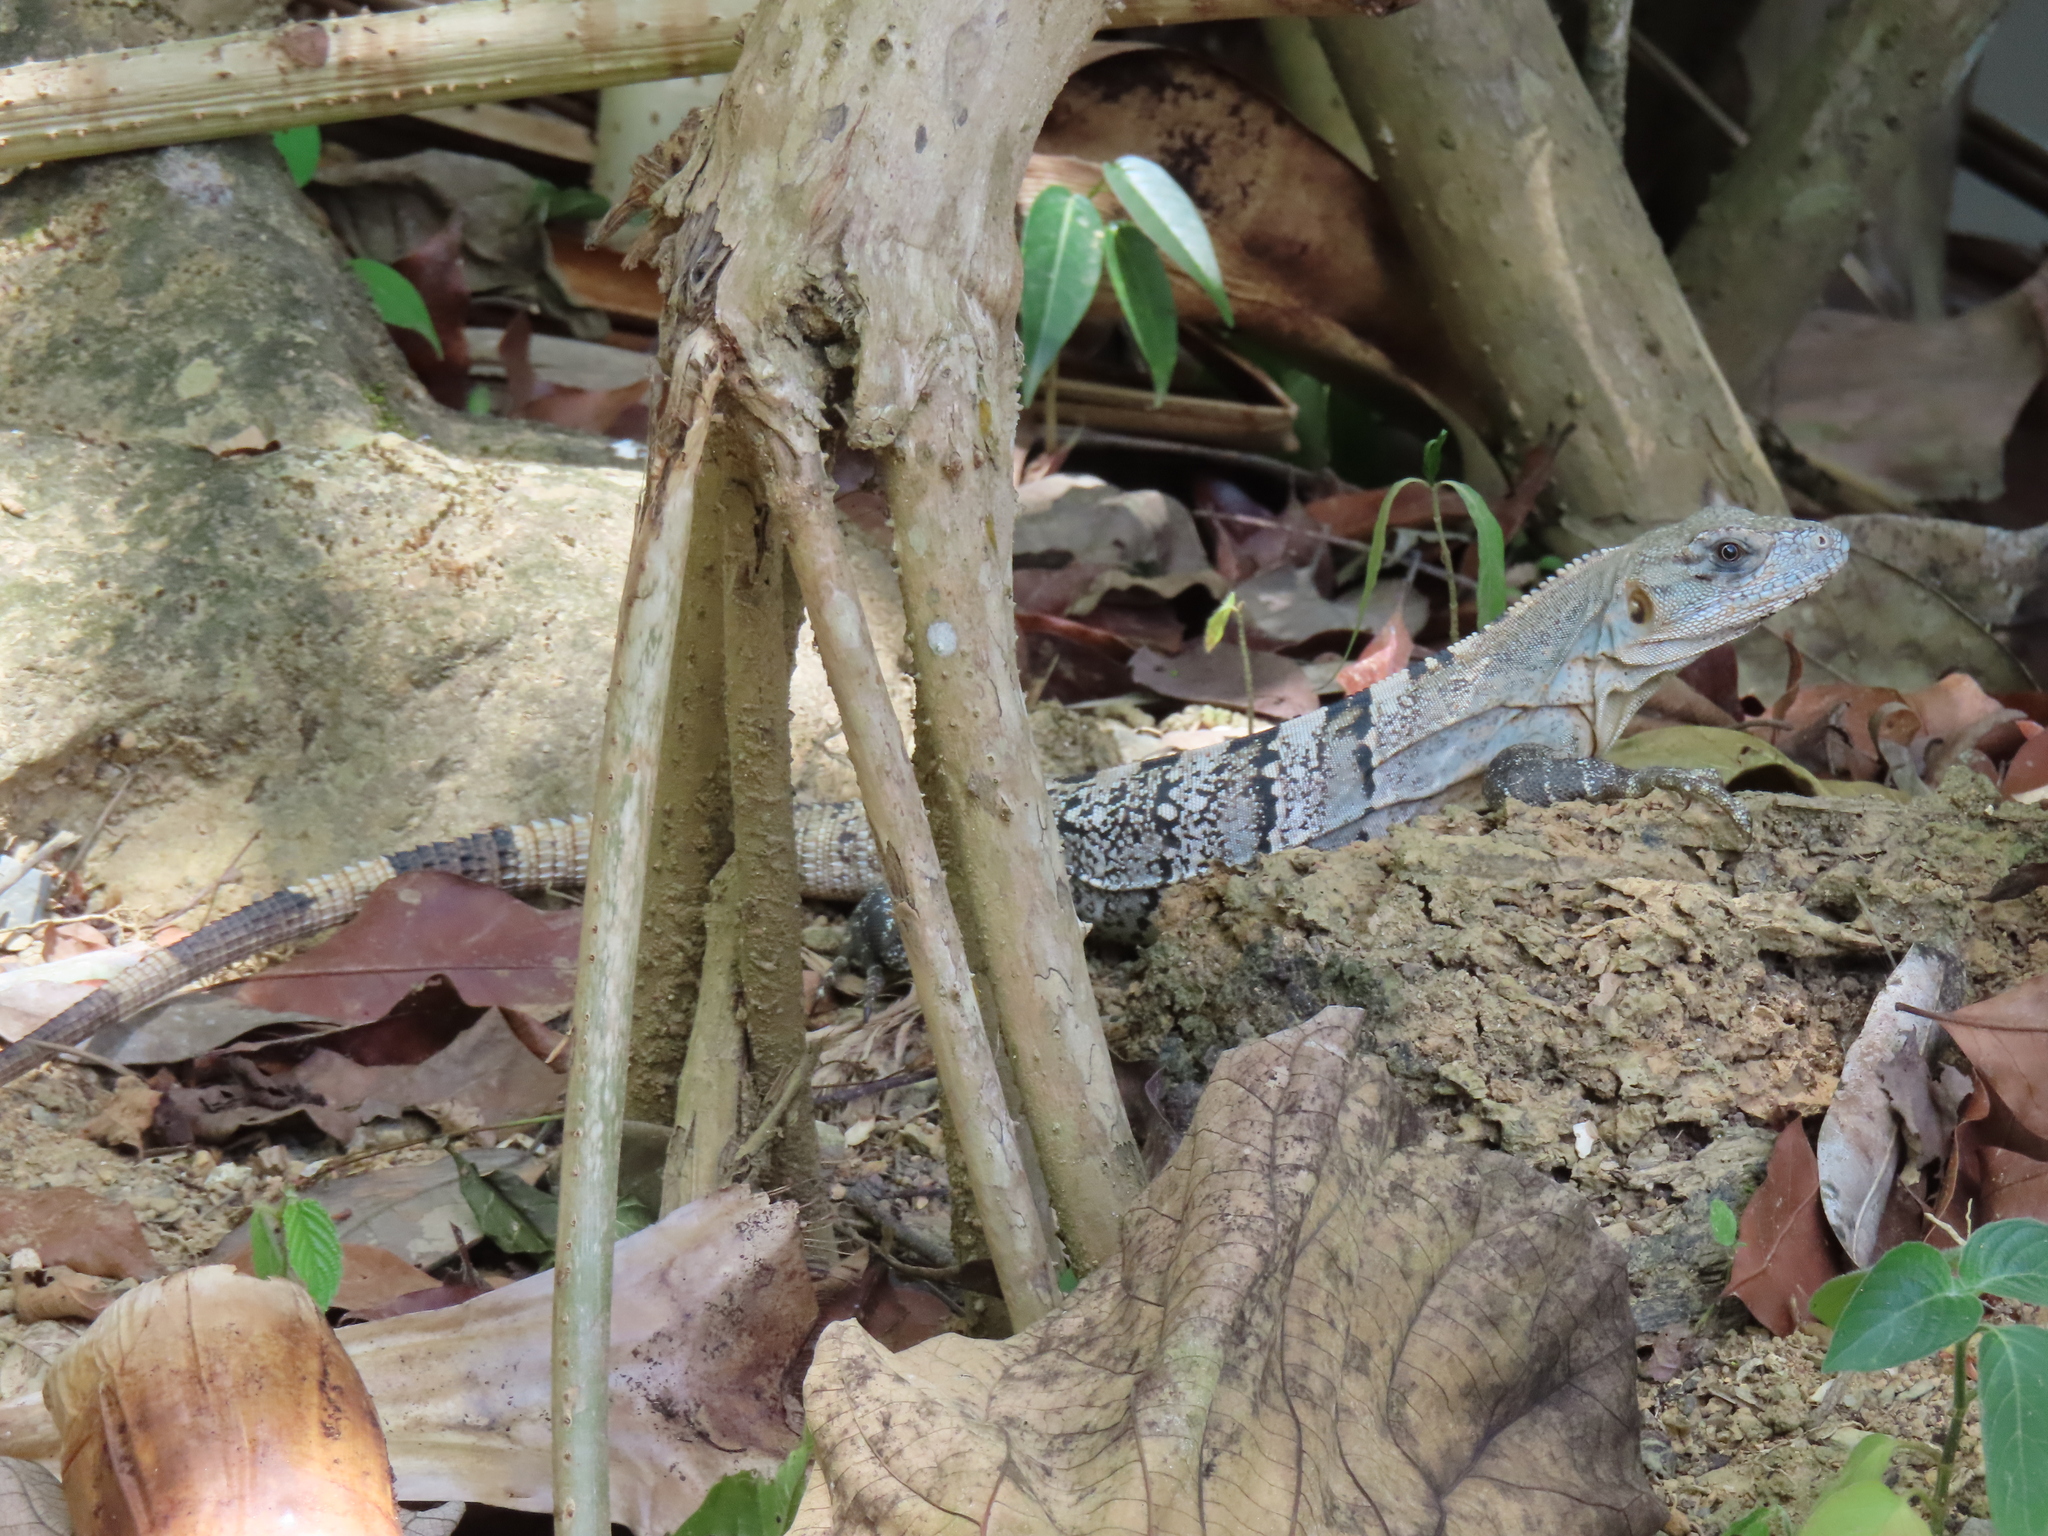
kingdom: Animalia
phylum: Chordata
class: Squamata
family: Iguanidae
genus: Ctenosaura
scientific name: Ctenosaura similis
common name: Black spiny-tailed iguana
